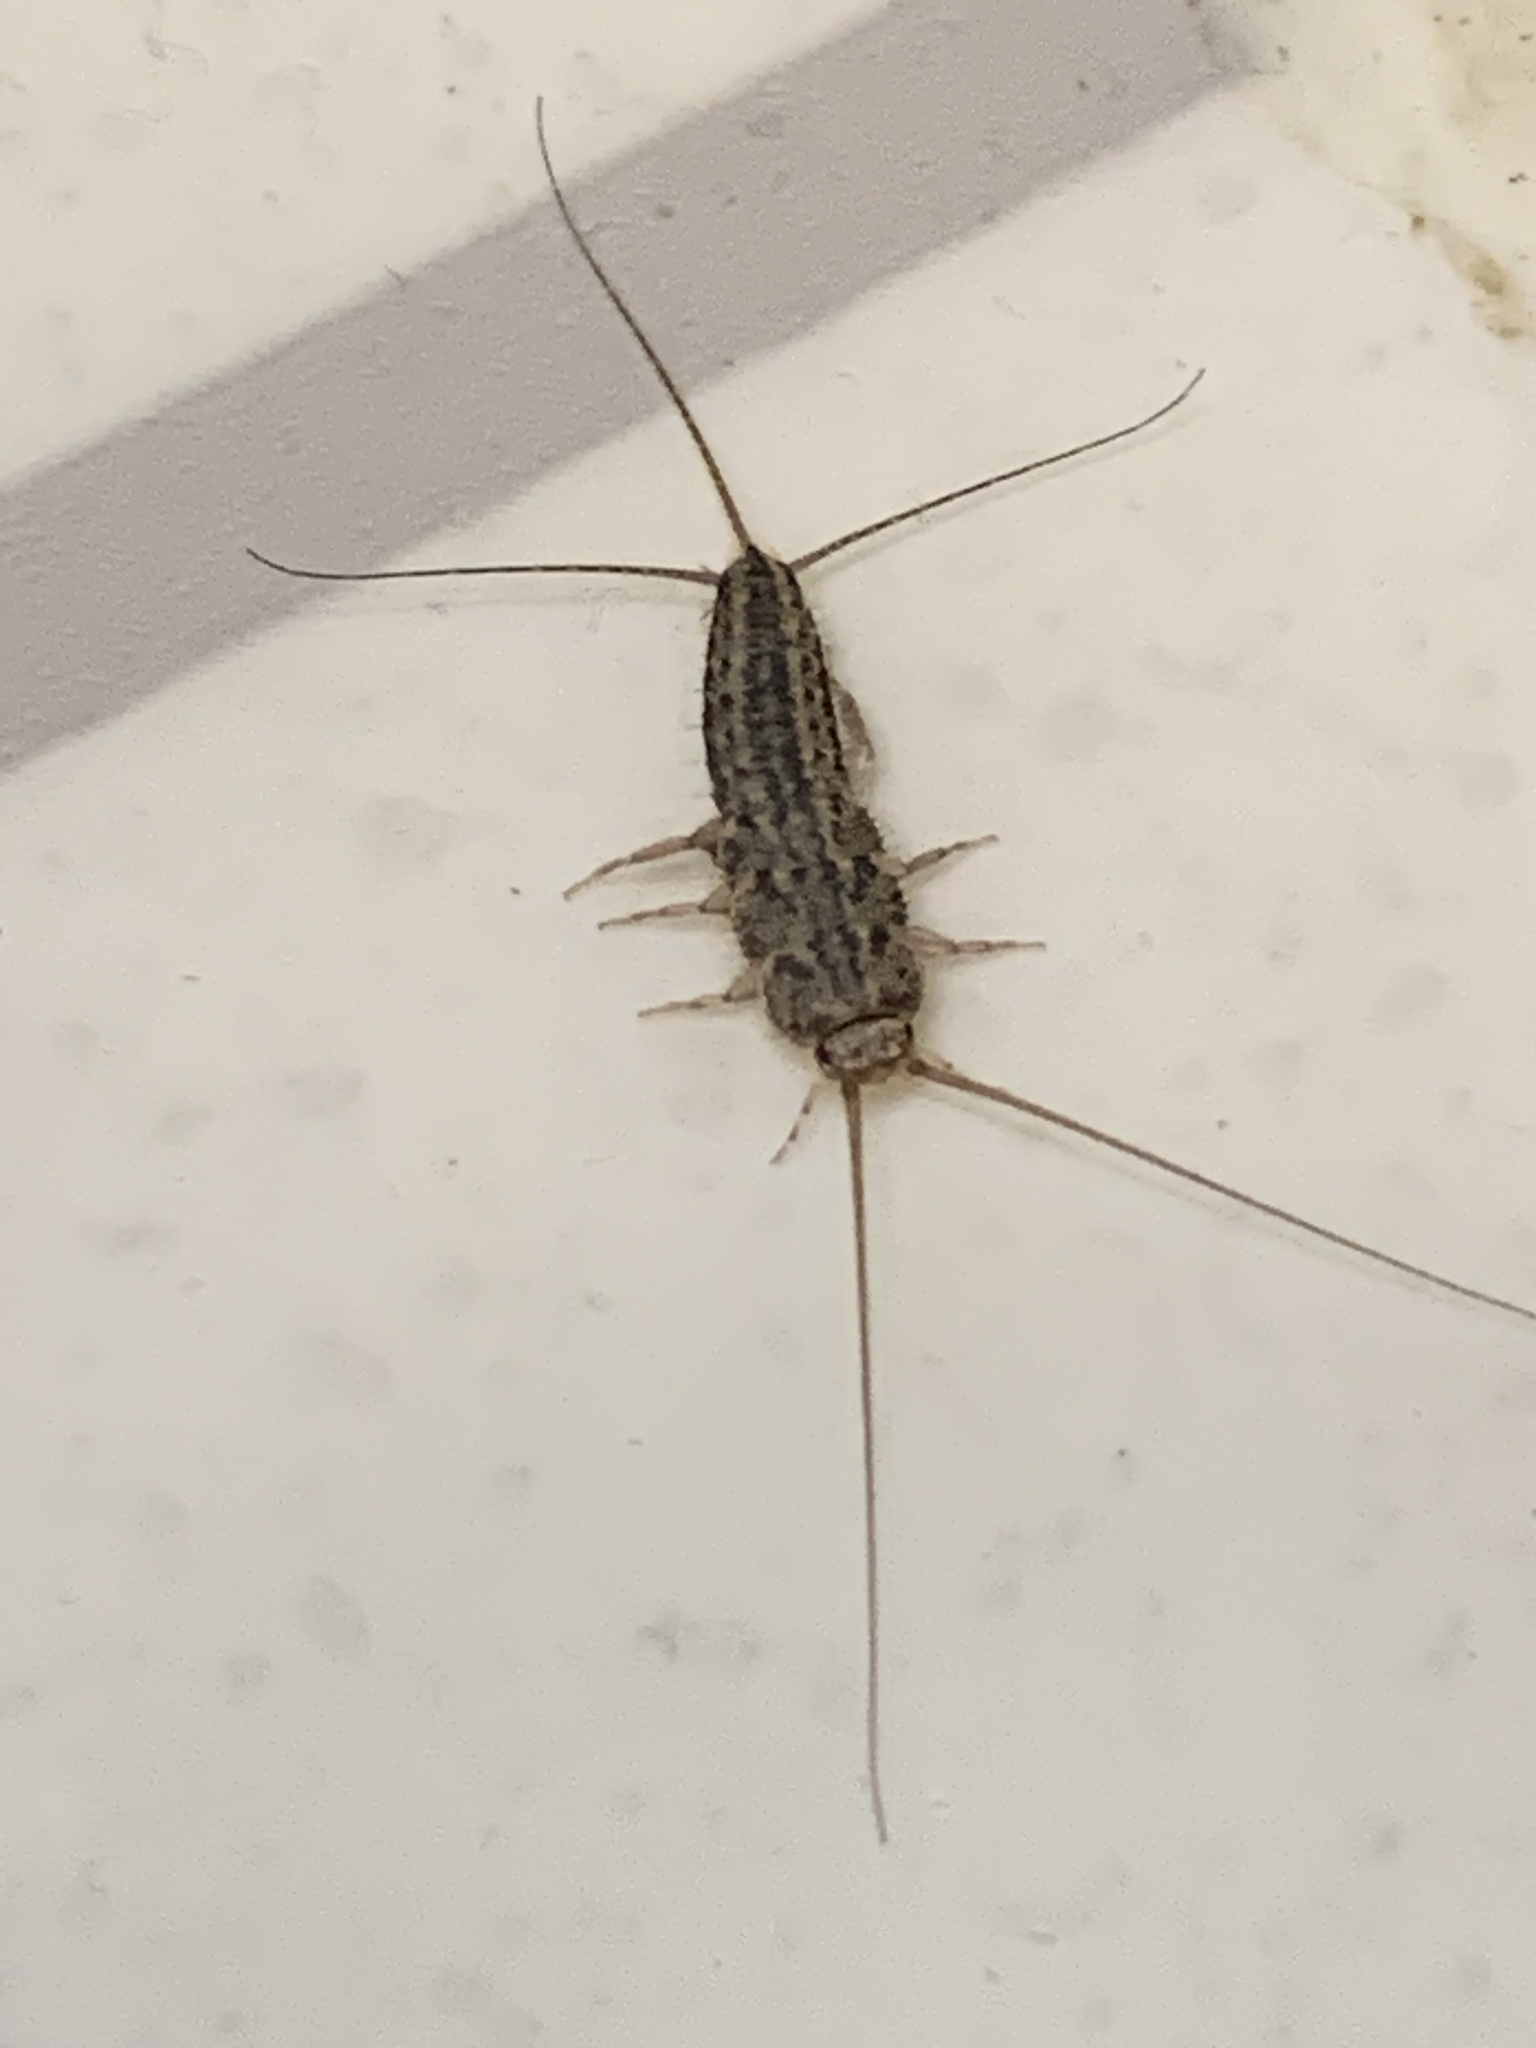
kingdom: Animalia
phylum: Arthropoda
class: Insecta
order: Zygentoma
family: Lepismatidae
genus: Ctenolepisma
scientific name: Ctenolepisma lineata
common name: Four-lined silverfish
